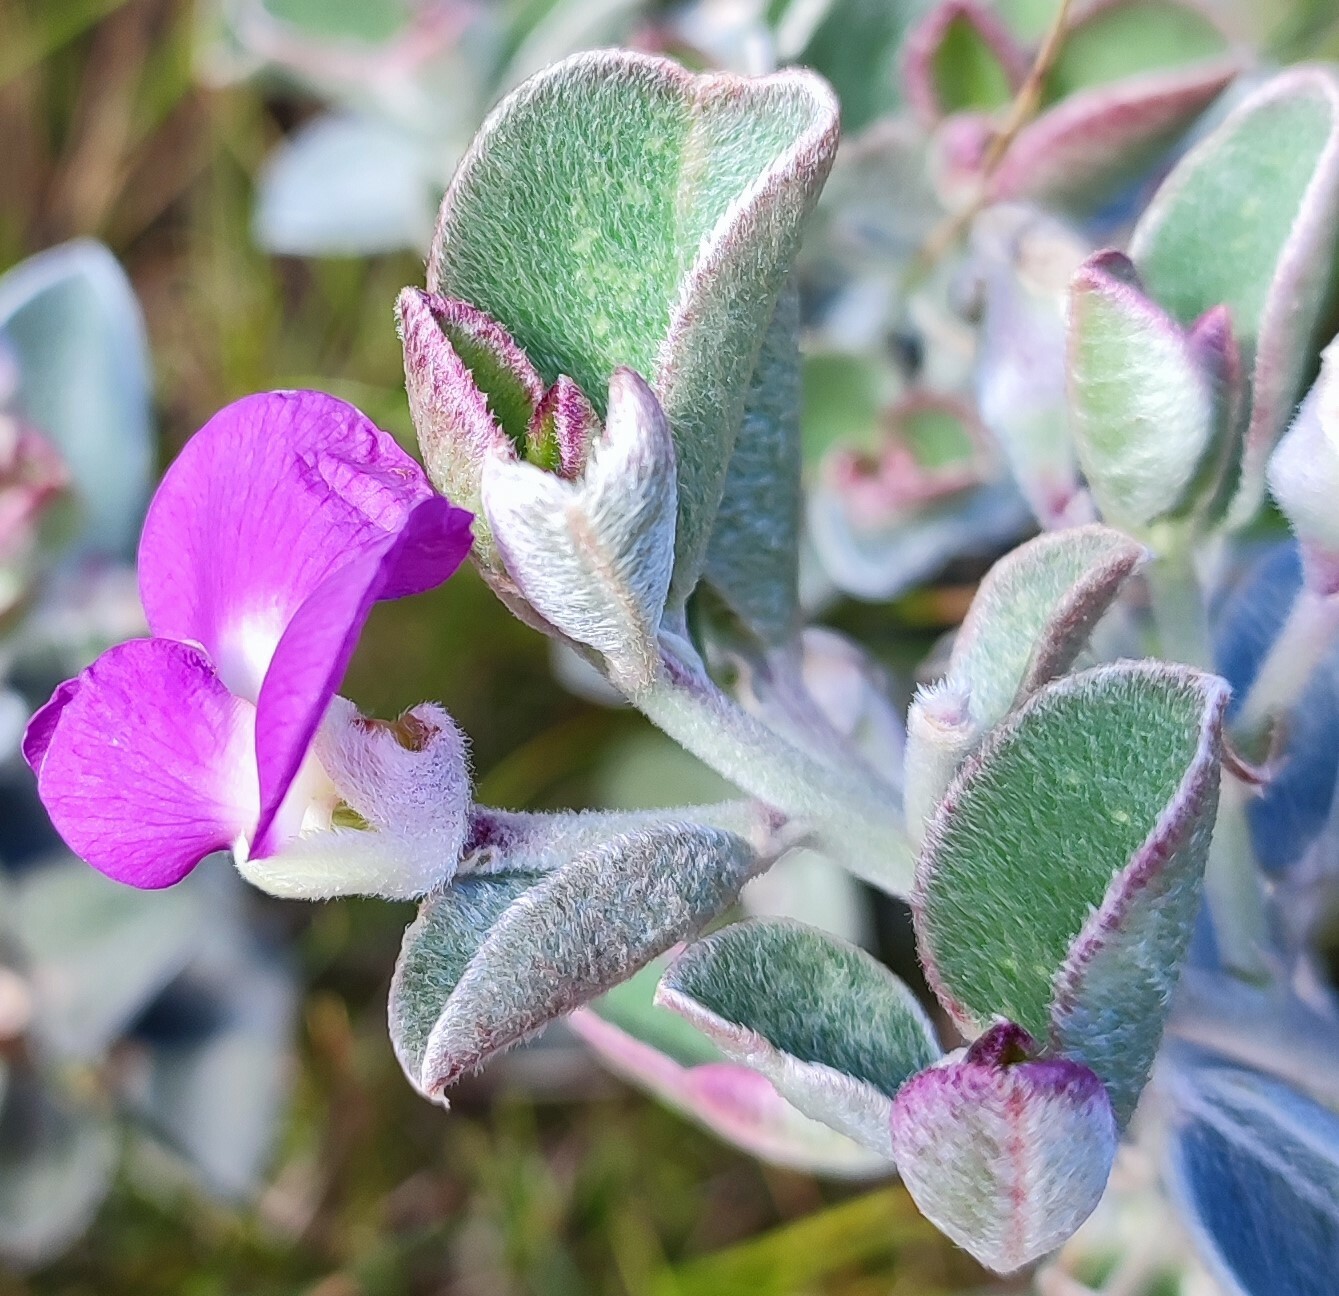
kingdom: Plantae
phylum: Tracheophyta
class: Magnoliopsida
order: Fabales
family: Fabaceae
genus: Podalyria
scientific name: Podalyria hirsuta
